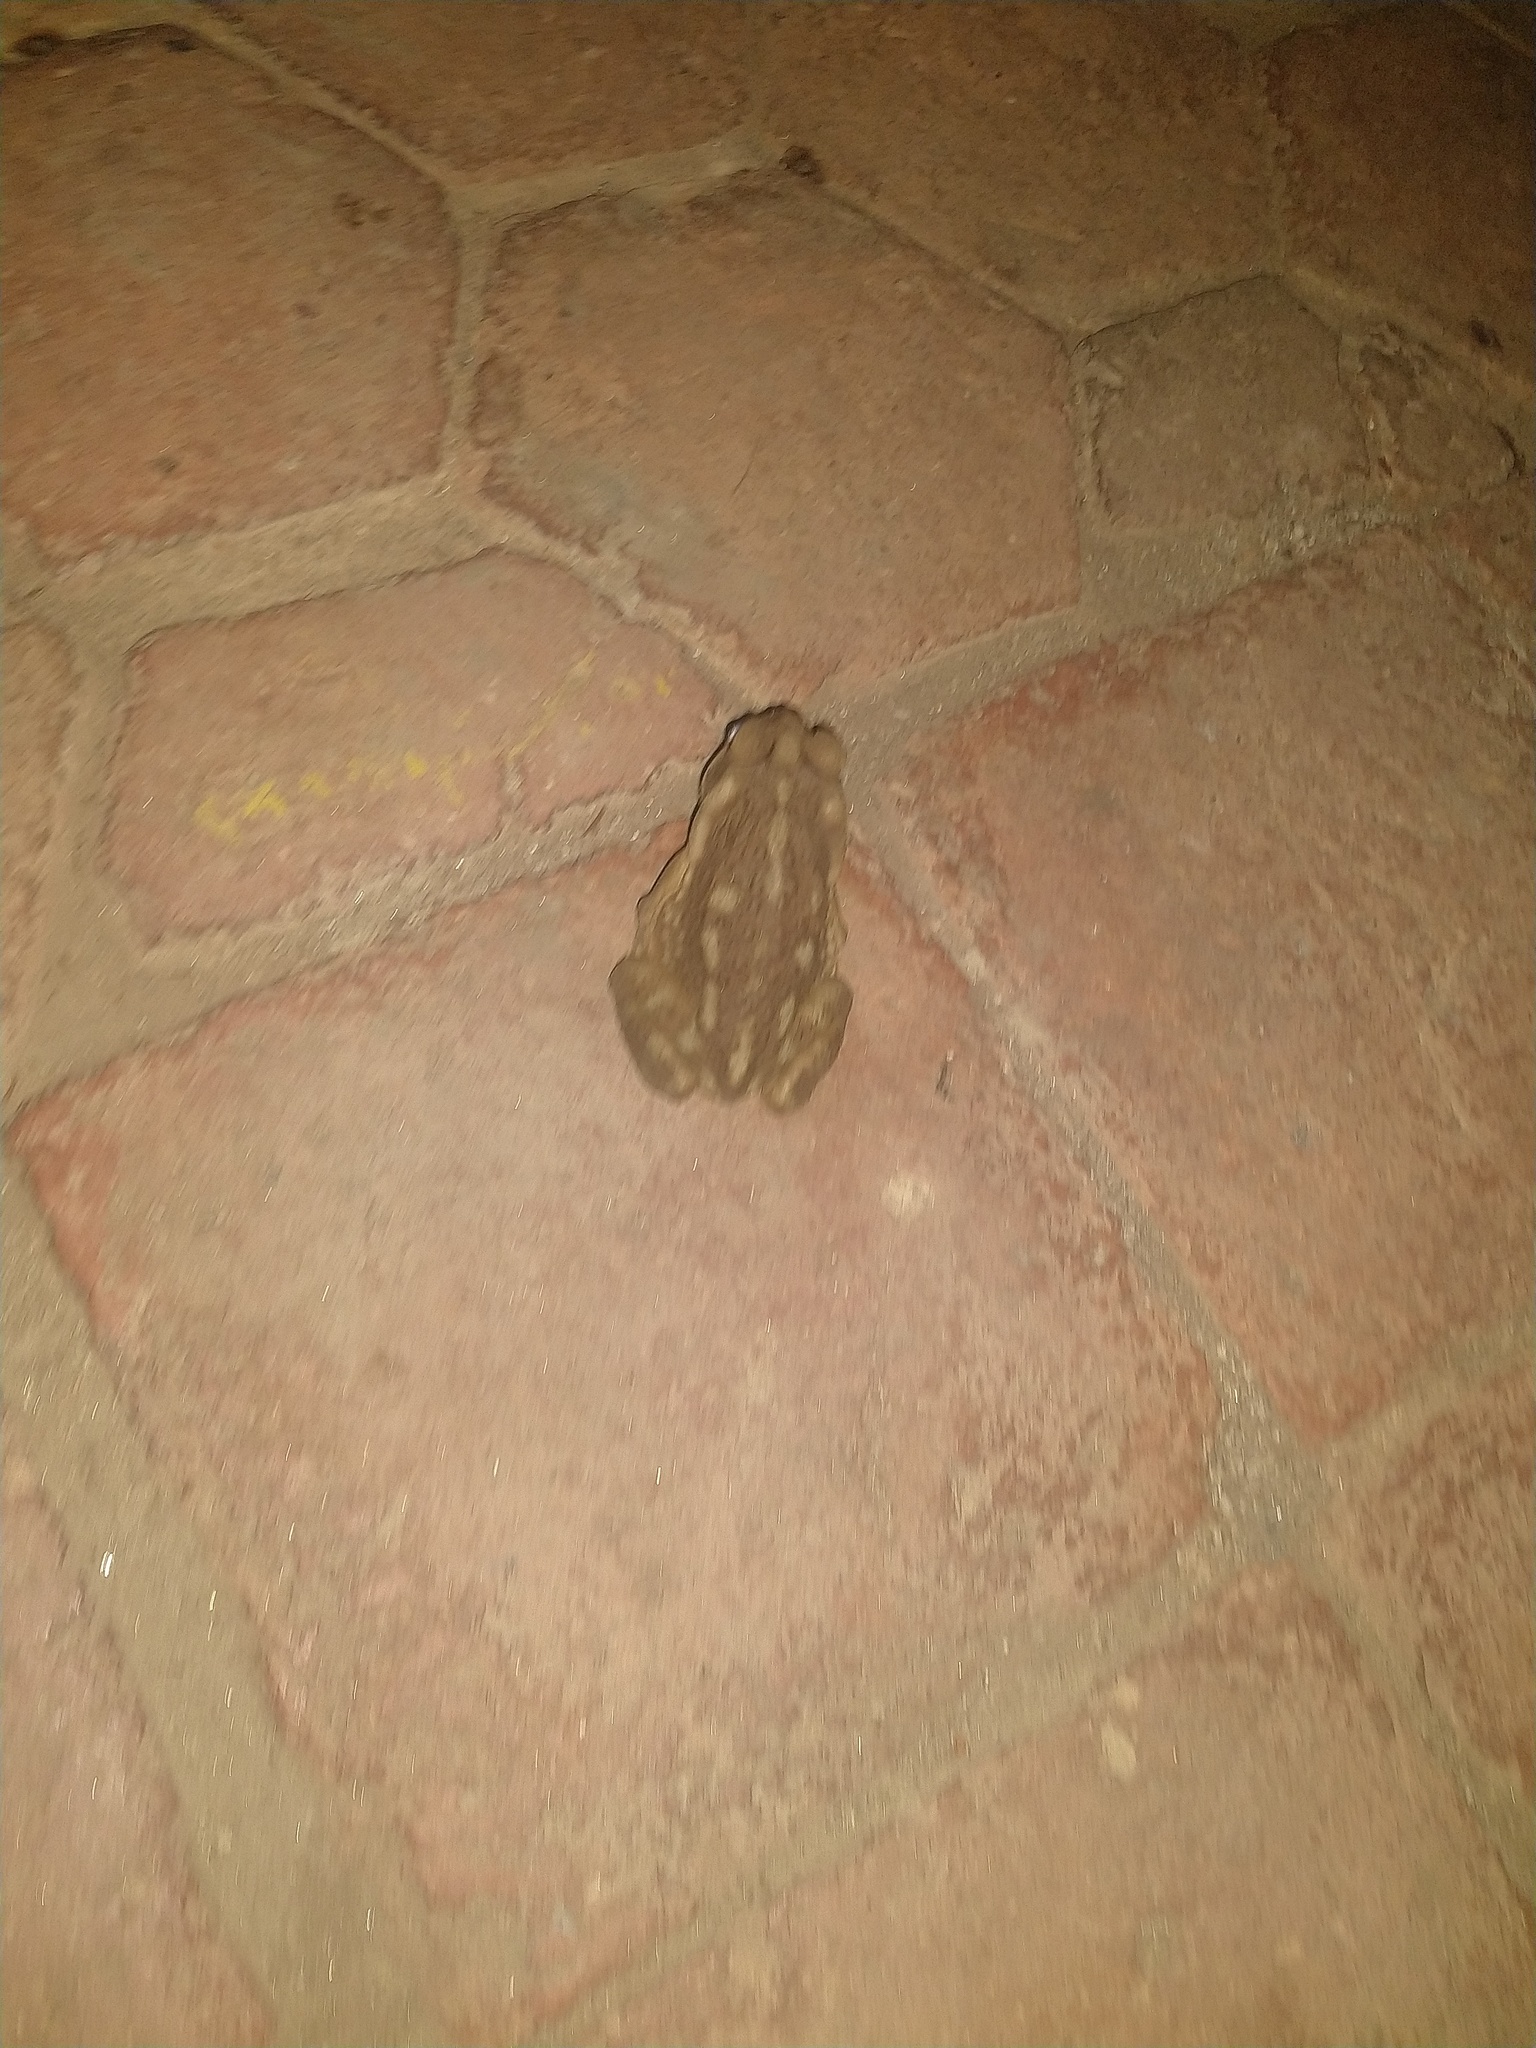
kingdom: Animalia
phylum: Chordata
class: Amphibia
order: Anura
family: Bufonidae
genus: Rhinella
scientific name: Rhinella arenarum
